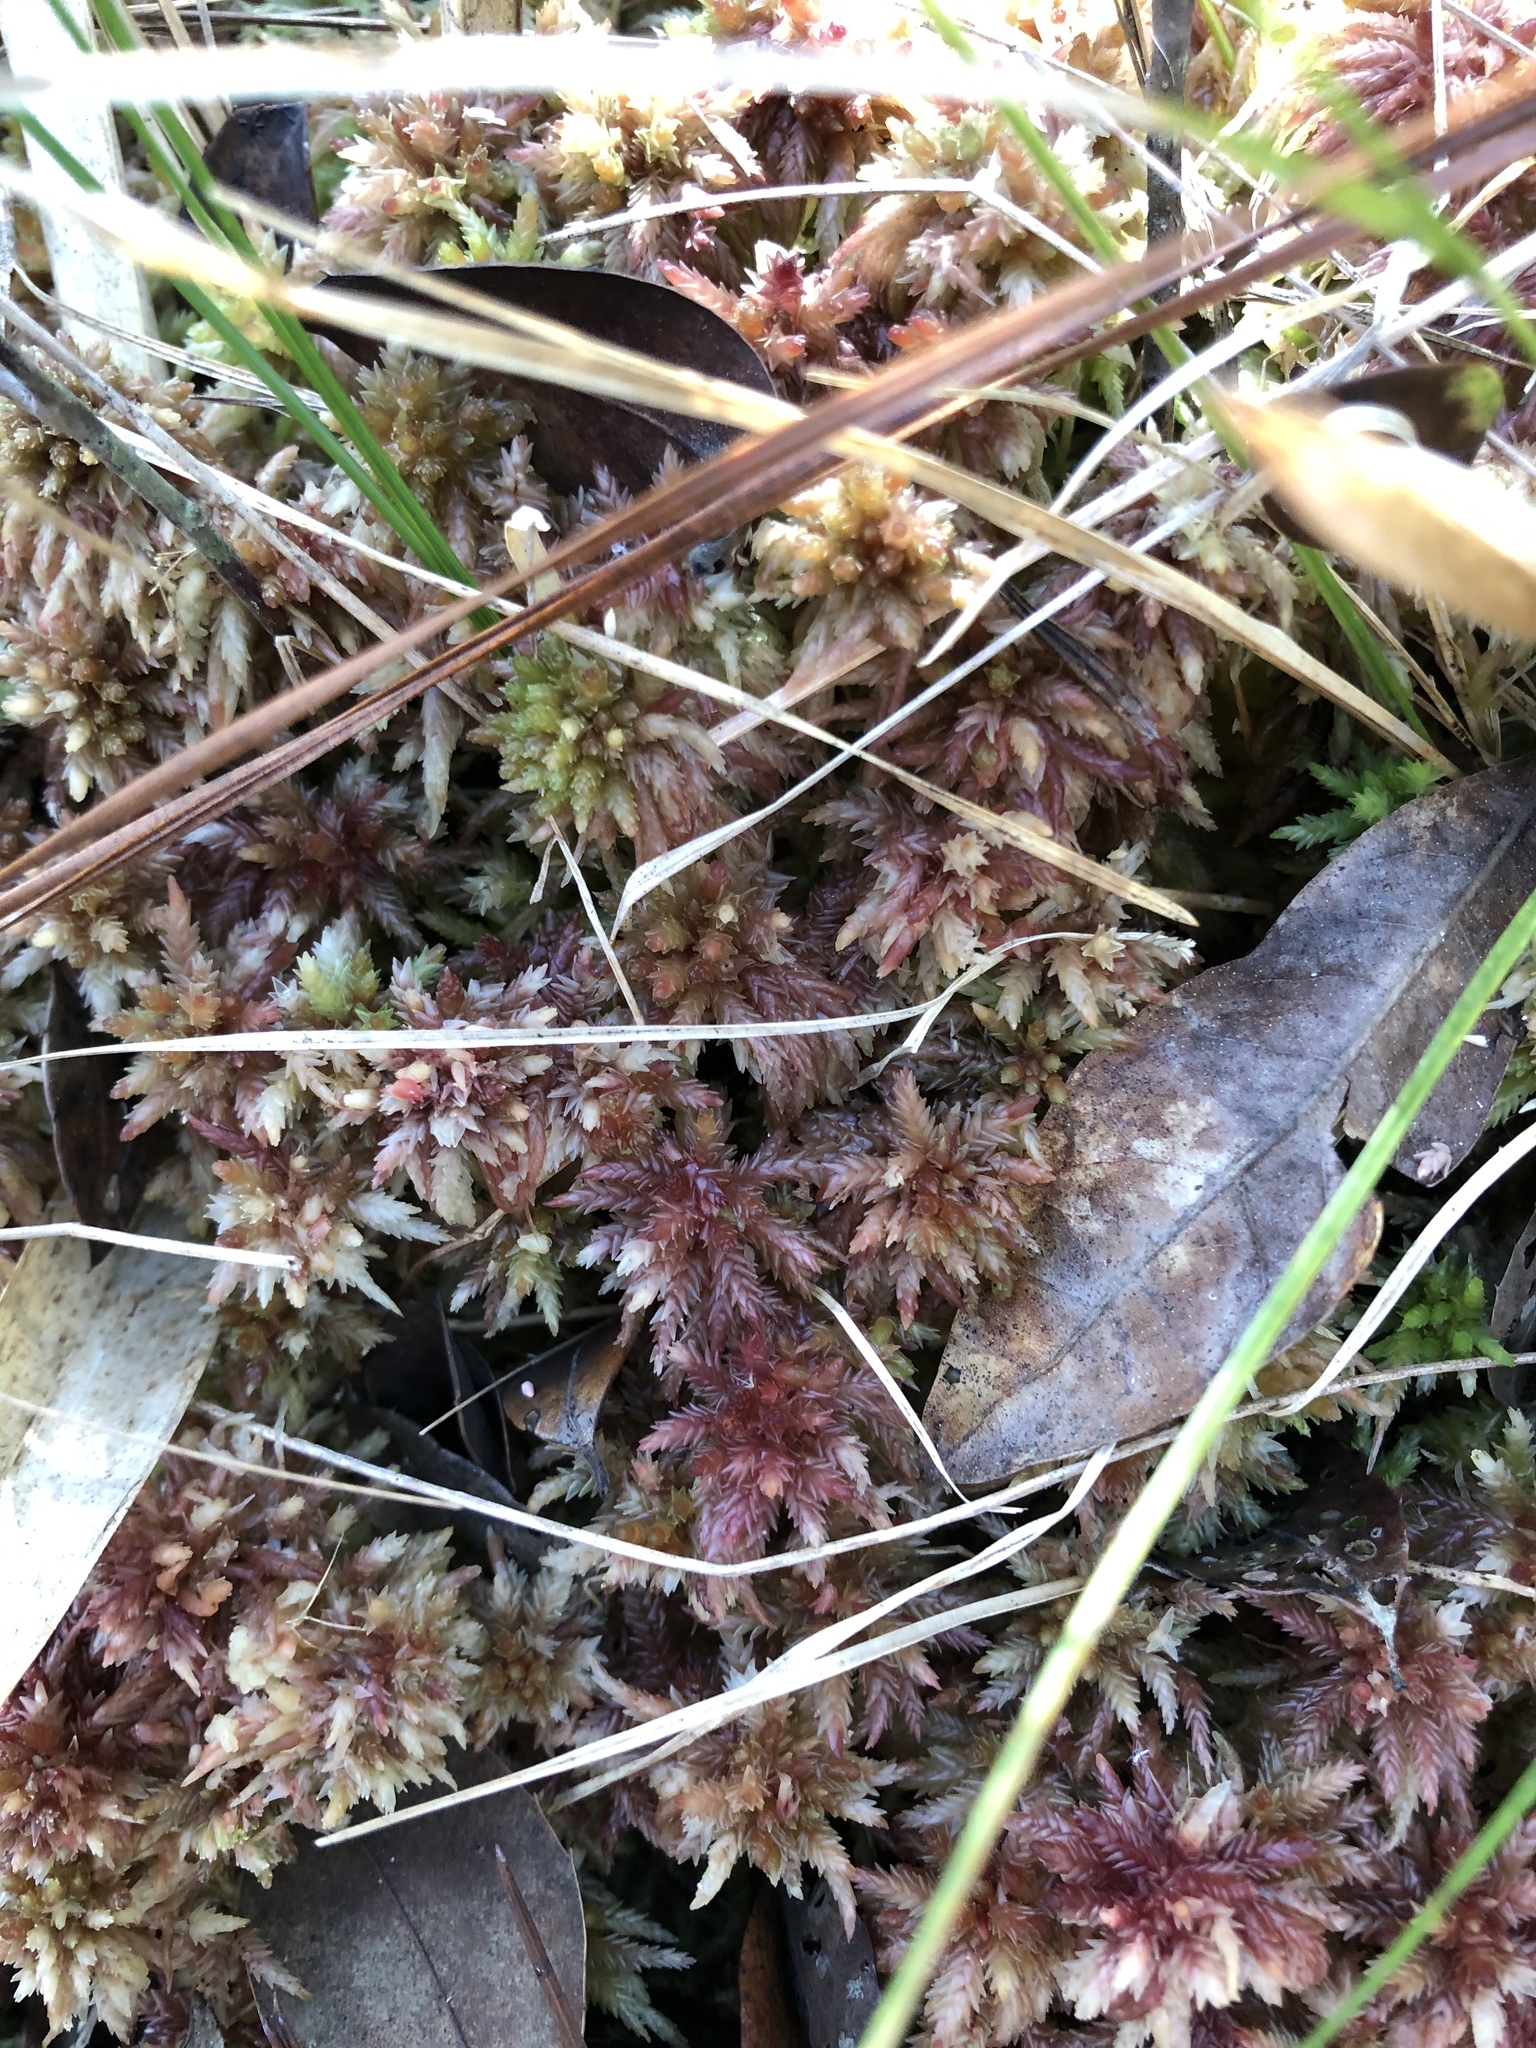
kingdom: Plantae
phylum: Bryophyta
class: Sphagnopsida
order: Sphagnales
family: Sphagnaceae
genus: Sphagnum
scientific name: Sphagnum magellanicum
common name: Magellan's peat moss
